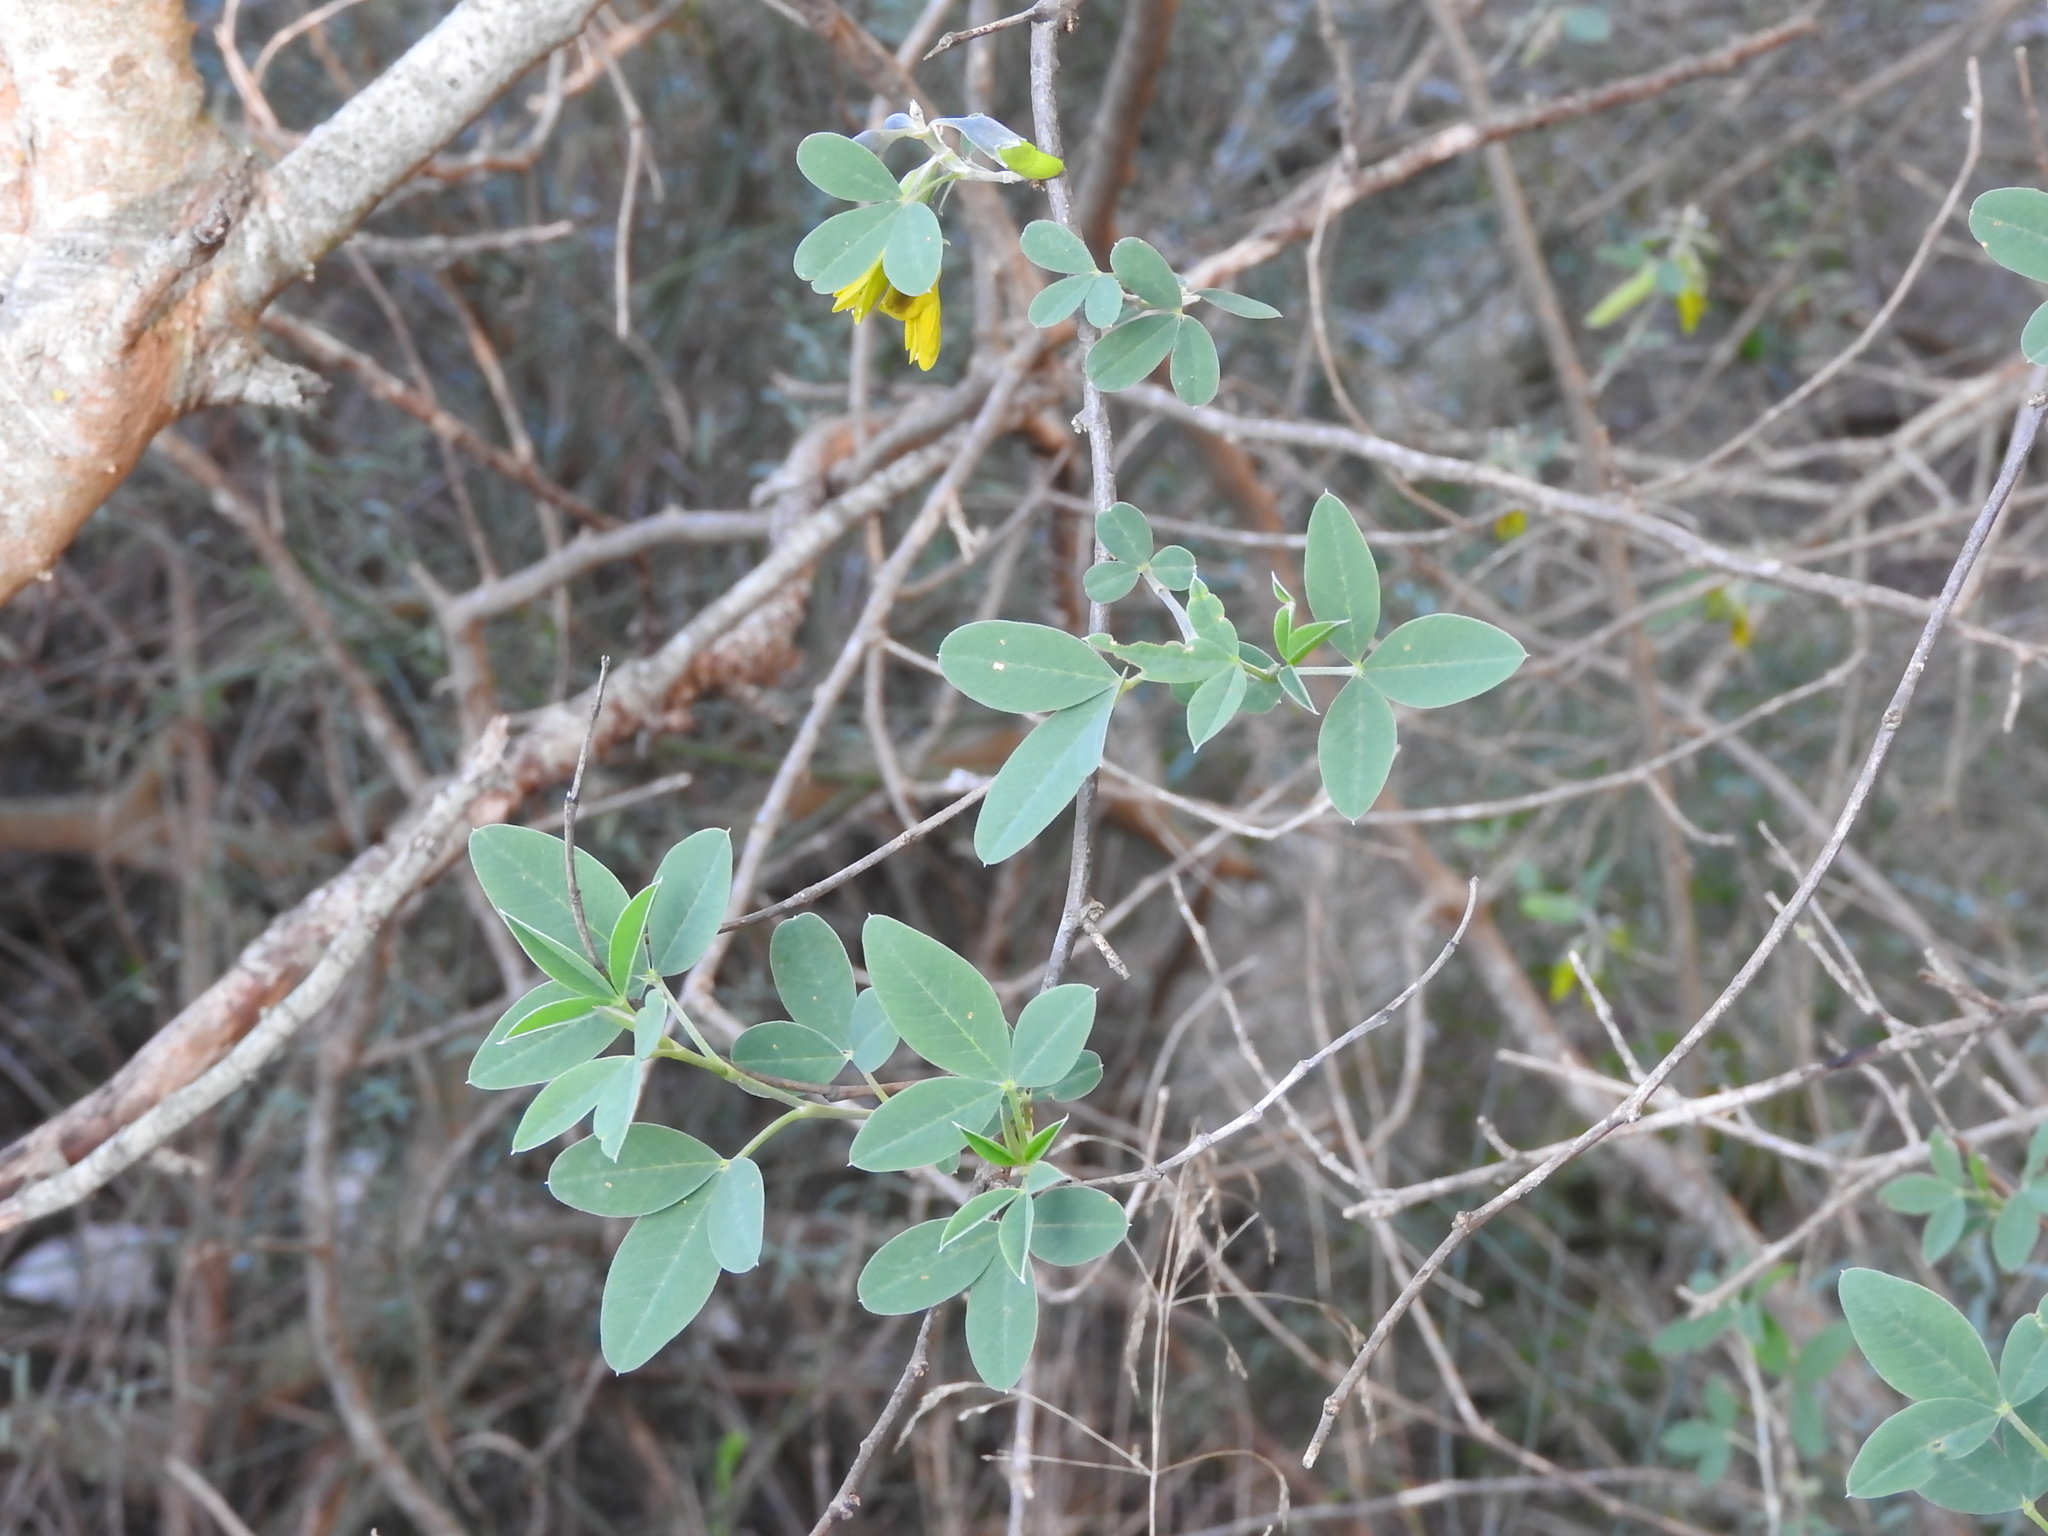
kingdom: Plantae
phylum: Tracheophyta
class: Magnoliopsida
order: Fabales
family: Fabaceae
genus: Anagyris
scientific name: Anagyris foetida
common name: Stinking bean trefoil
